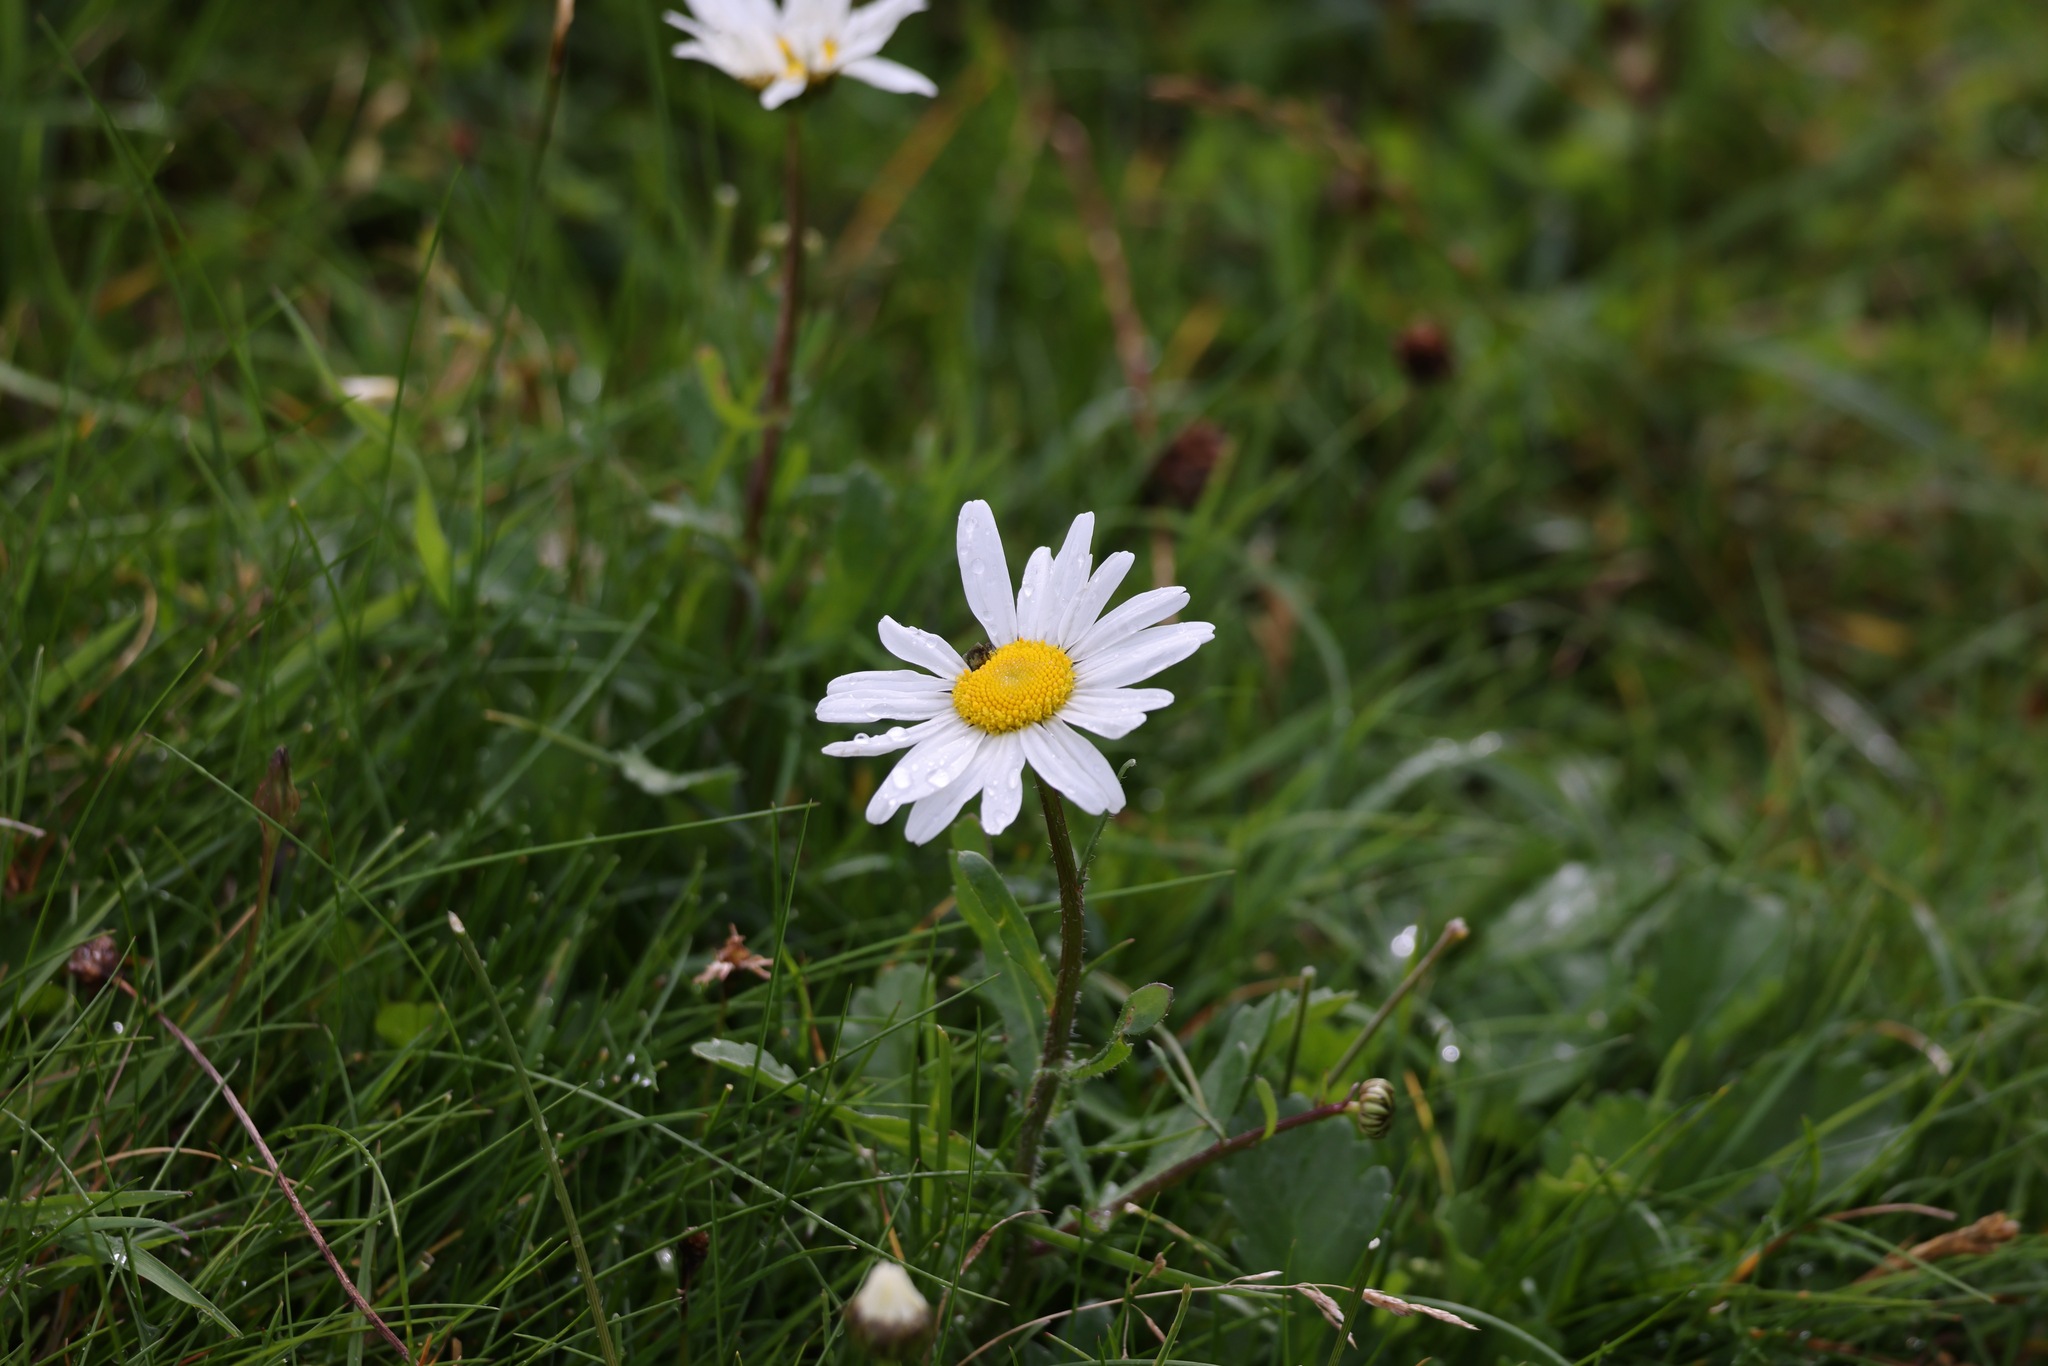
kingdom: Plantae
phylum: Tracheophyta
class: Magnoliopsida
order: Asterales
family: Asteraceae
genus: Bellis
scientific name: Bellis perennis
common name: Lawndaisy
